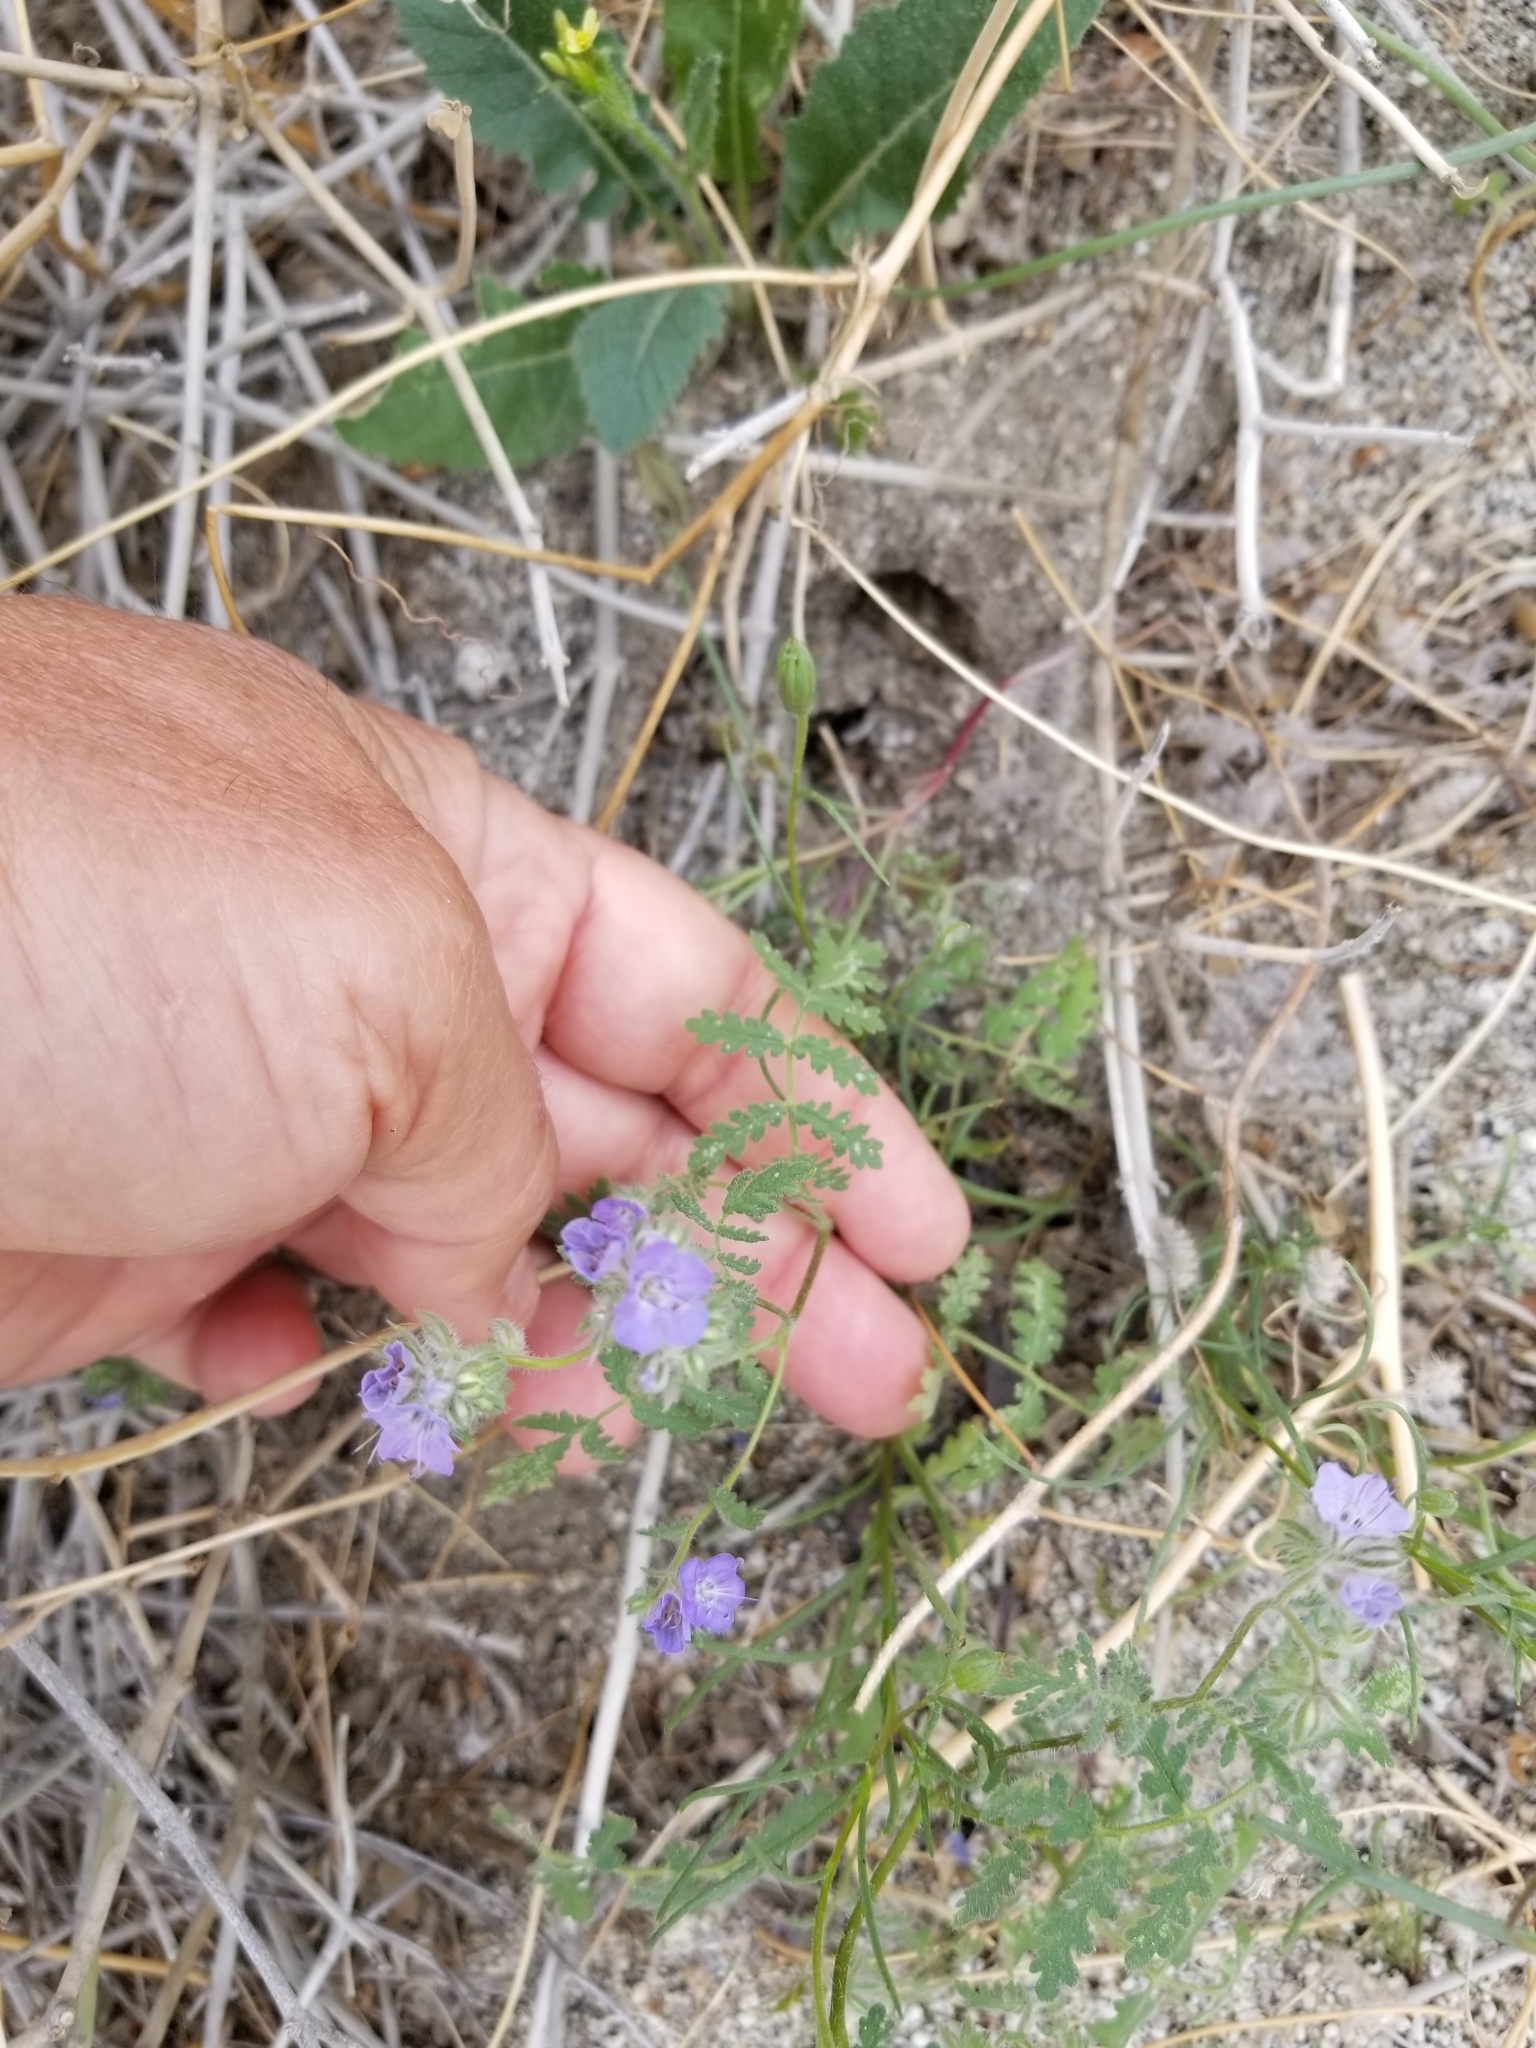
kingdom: Plantae
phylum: Tracheophyta
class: Magnoliopsida
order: Boraginales
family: Hydrophyllaceae
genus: Phacelia
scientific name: Phacelia distans
